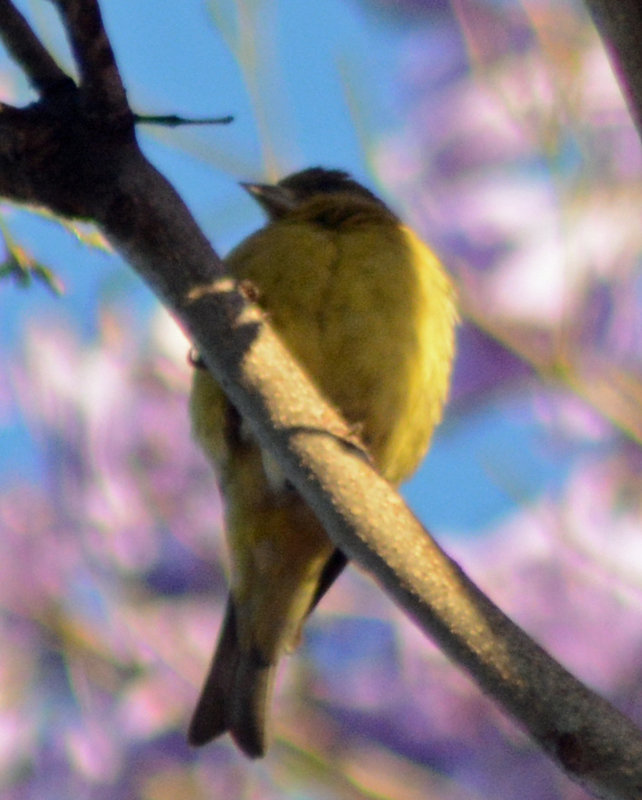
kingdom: Animalia
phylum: Chordata
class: Aves
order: Passeriformes
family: Fringillidae
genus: Spinus
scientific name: Spinus psaltria
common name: Lesser goldfinch
